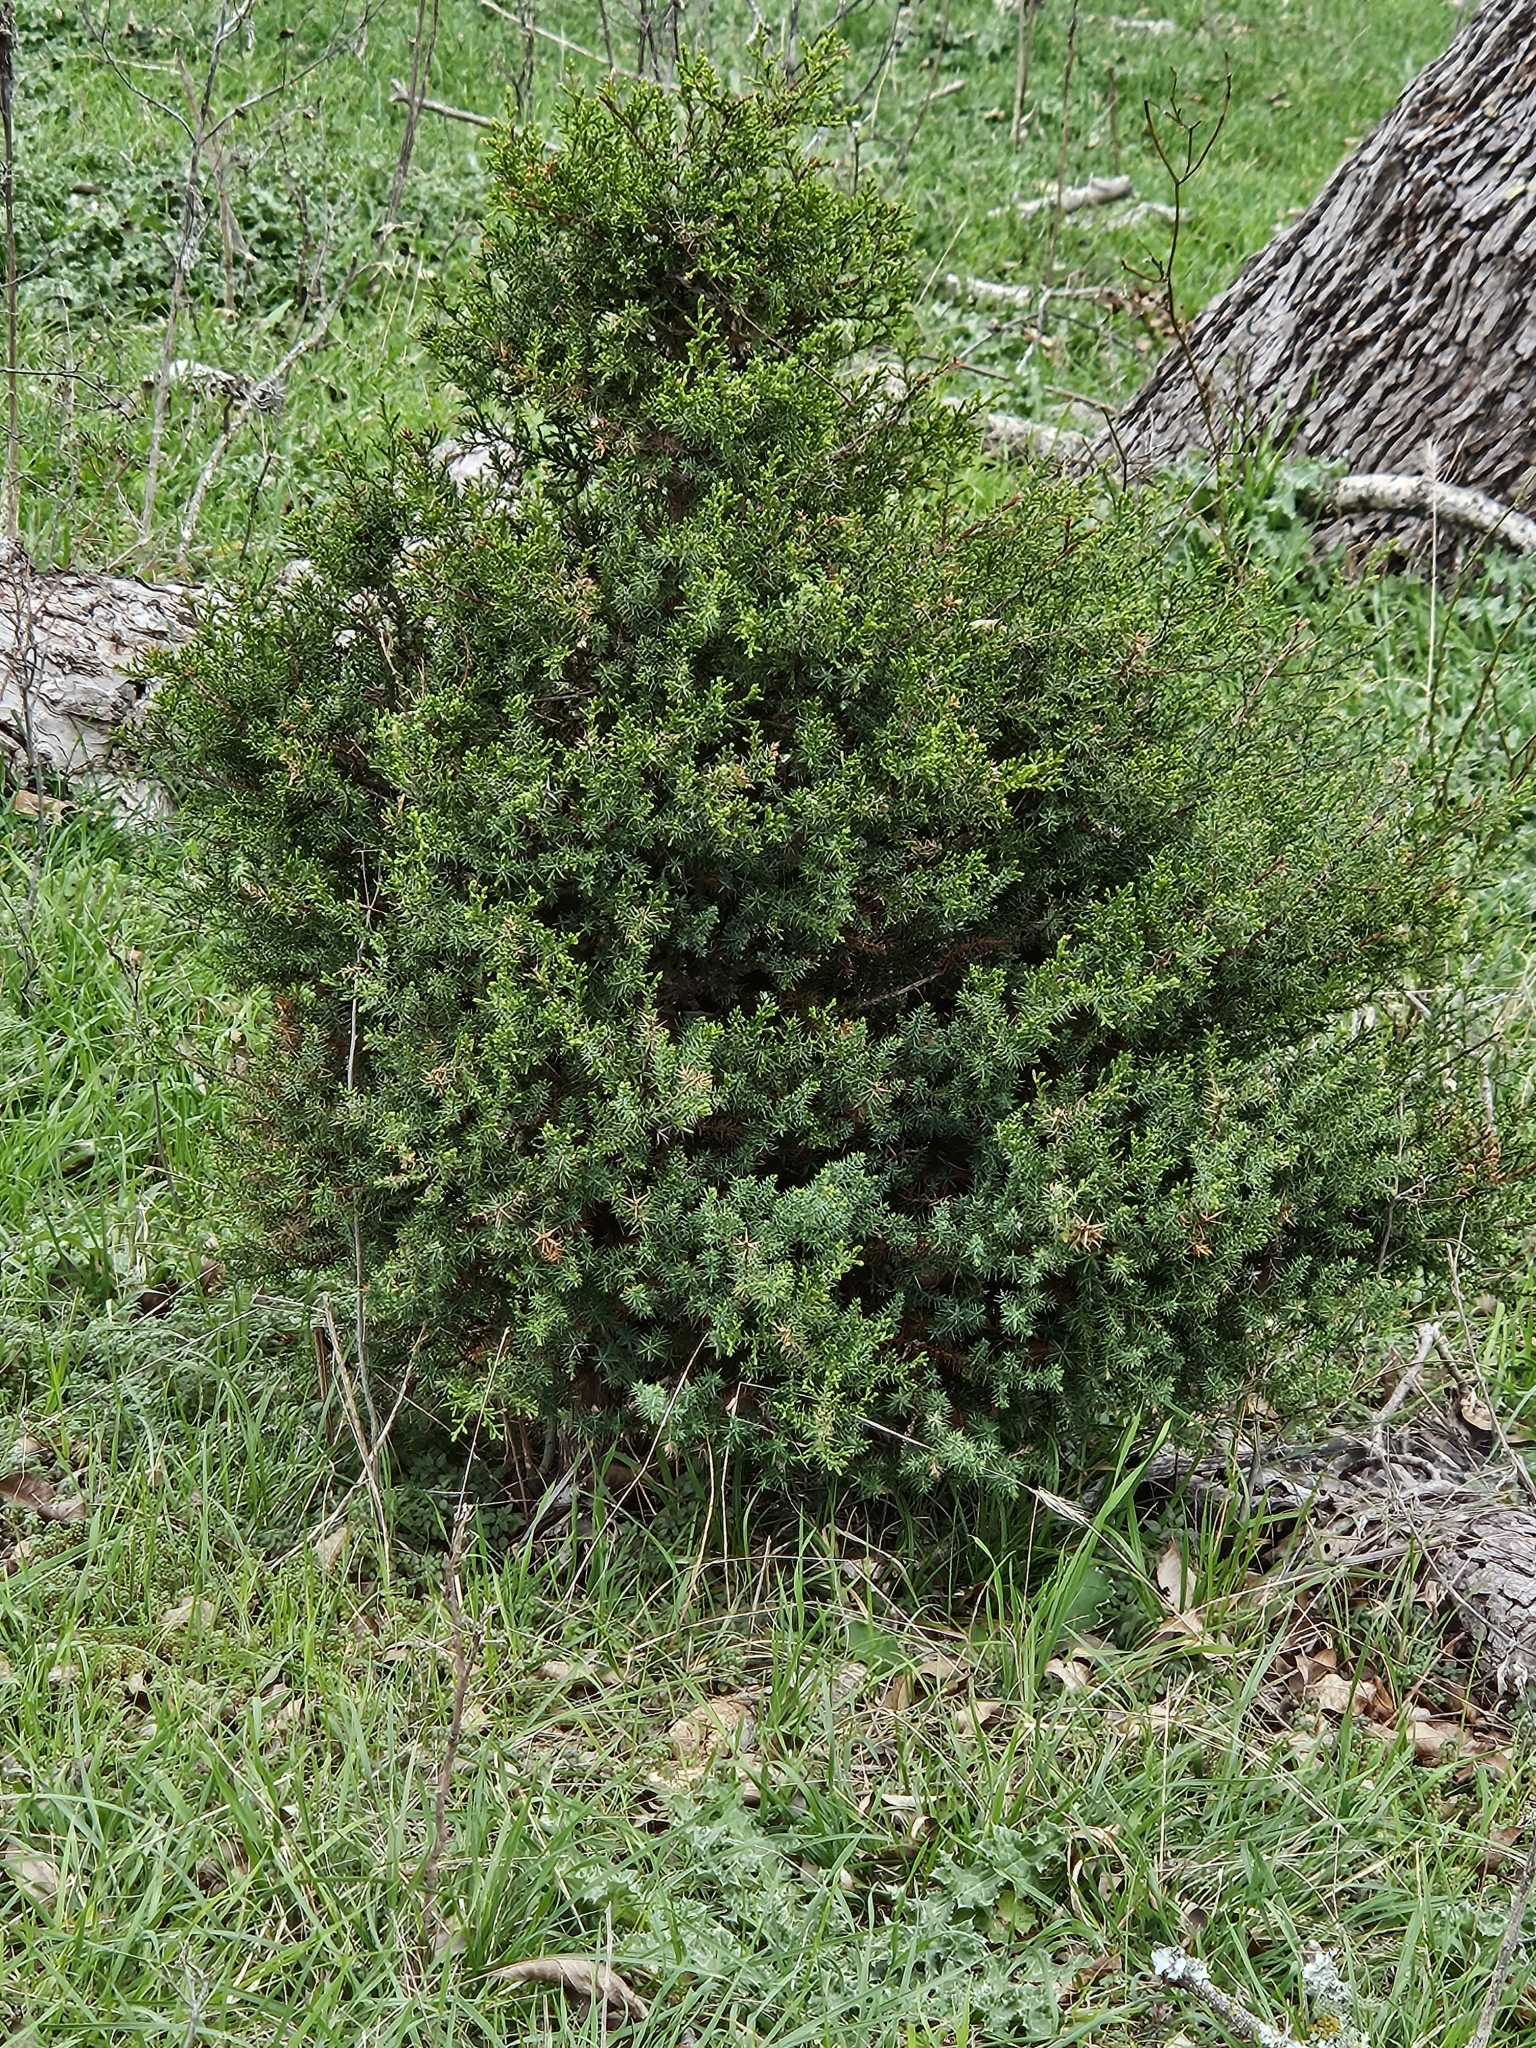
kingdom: Plantae
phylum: Tracheophyta
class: Pinopsida
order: Pinales
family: Cupressaceae
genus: Juniperus
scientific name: Juniperus ashei
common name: Mexican juniper
